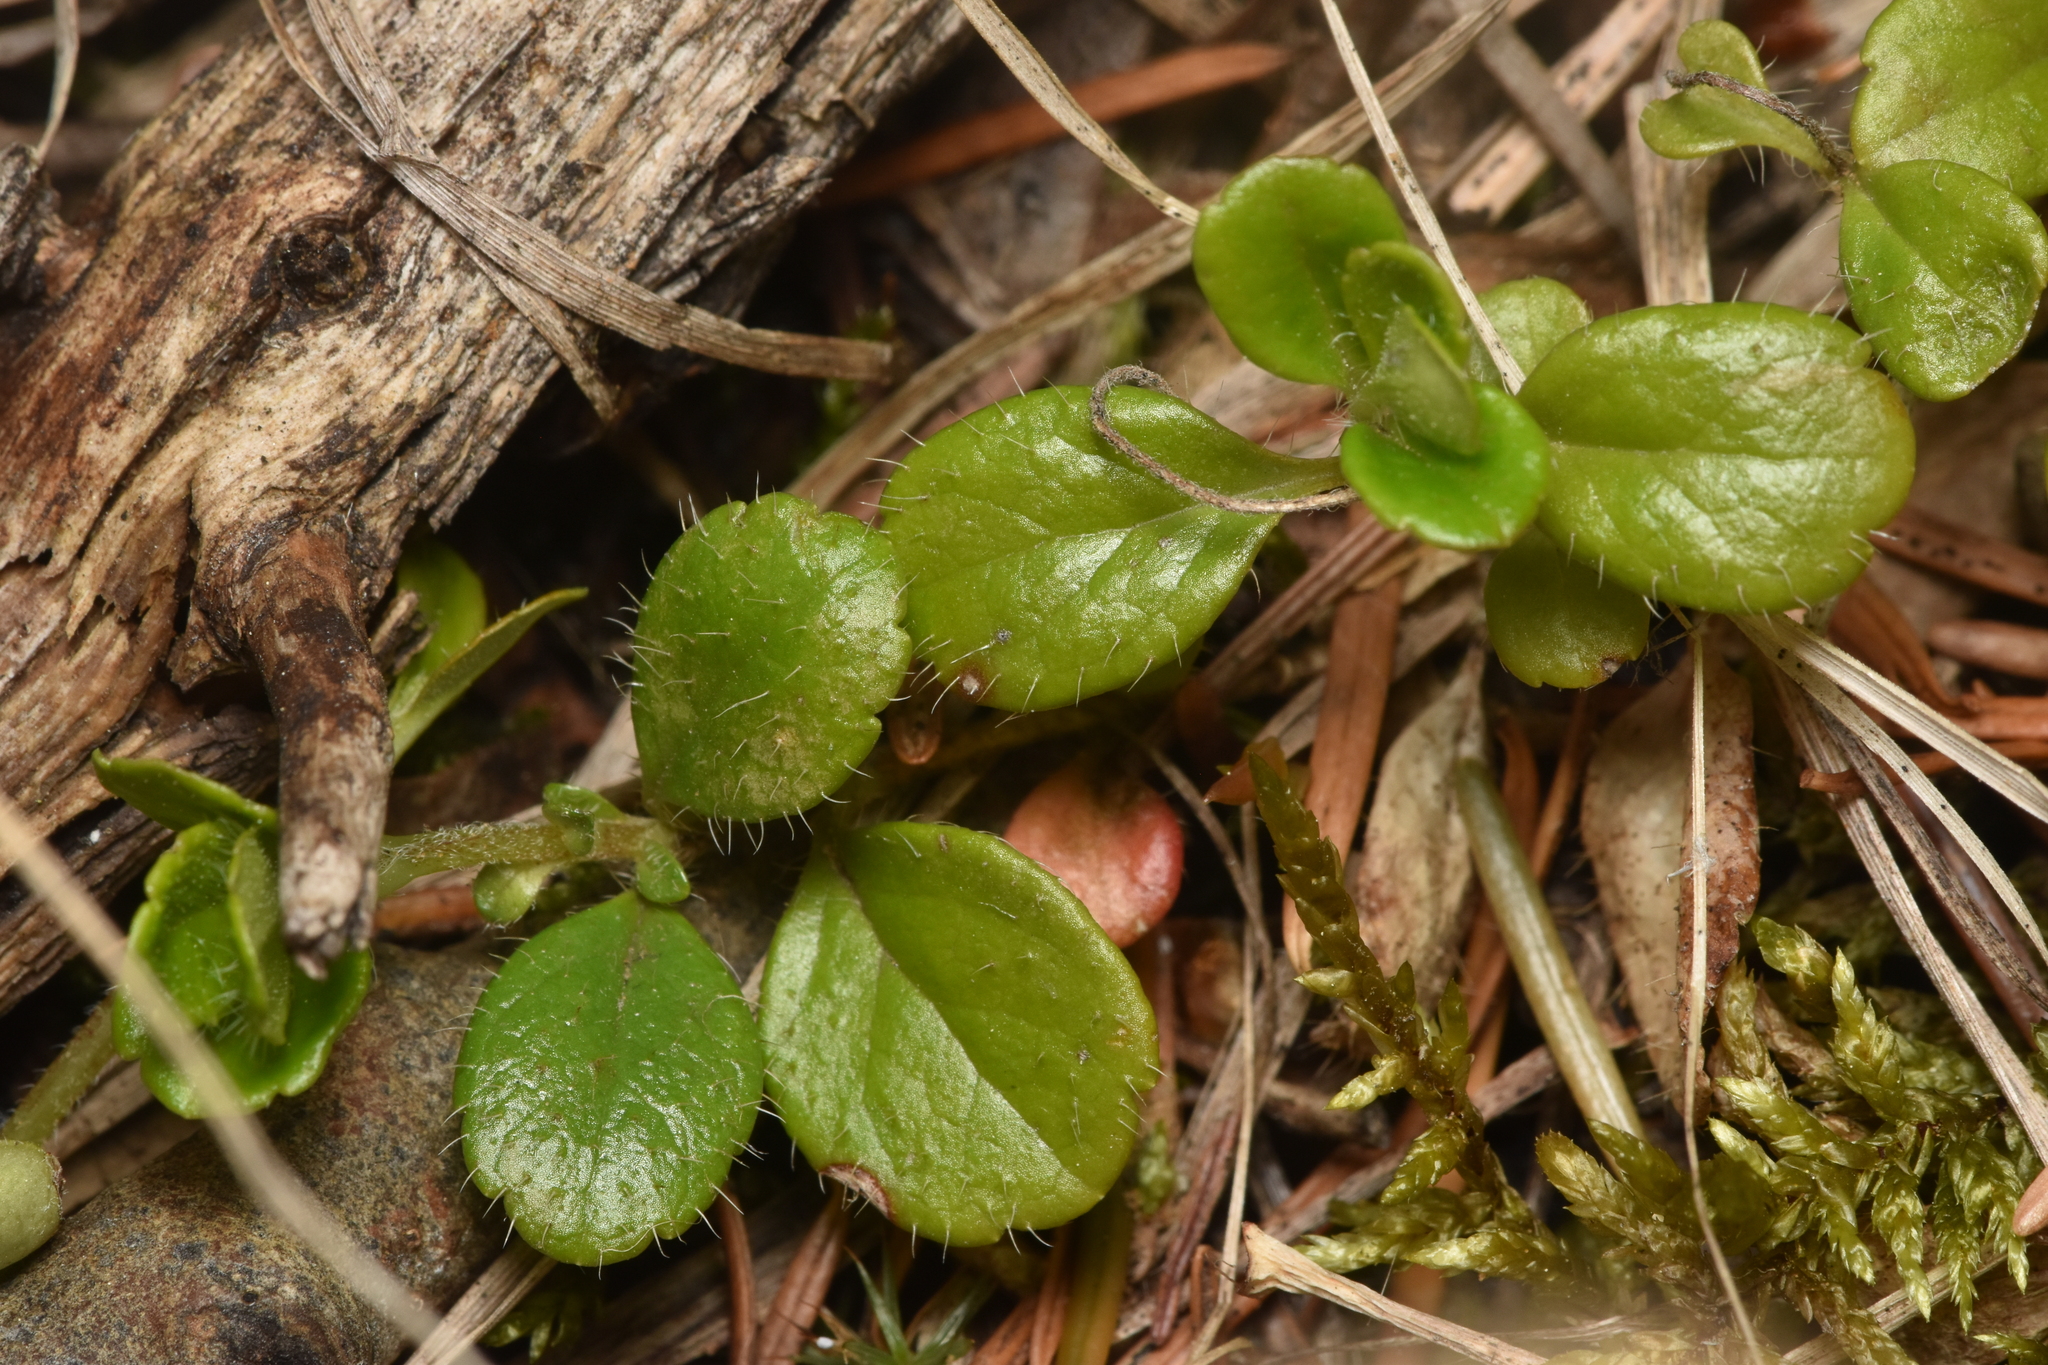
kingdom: Plantae
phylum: Tracheophyta
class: Magnoliopsida
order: Dipsacales
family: Caprifoliaceae
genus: Linnaea
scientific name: Linnaea borealis
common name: Twinflower
